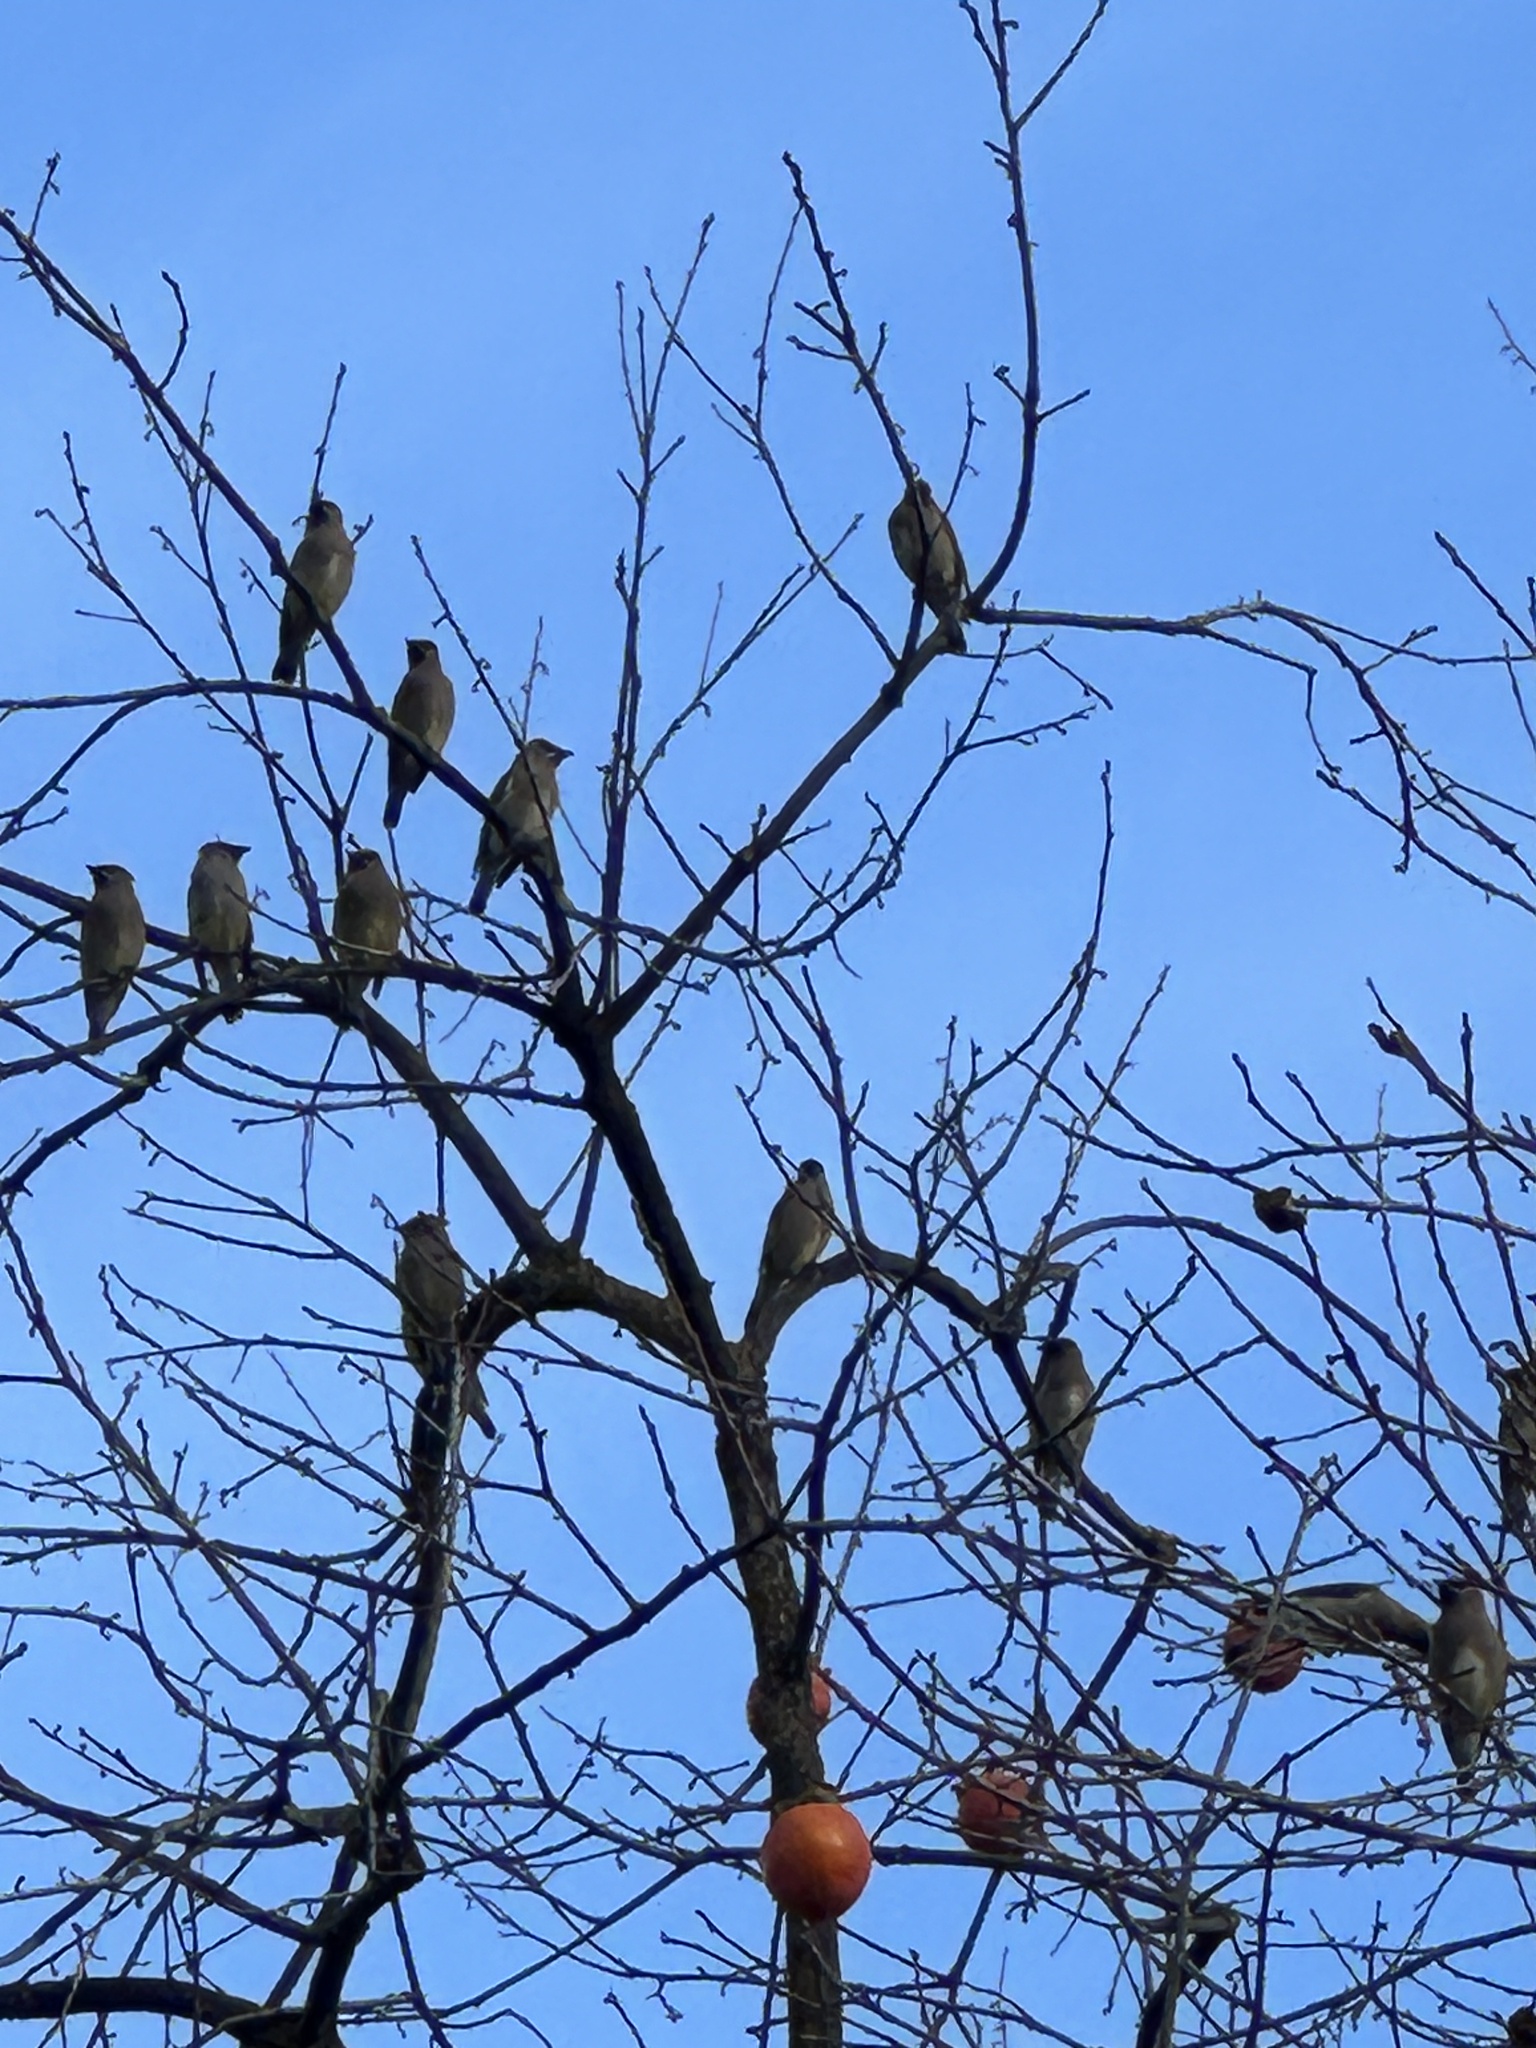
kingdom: Animalia
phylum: Chordata
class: Aves
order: Passeriformes
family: Bombycillidae
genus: Bombycilla
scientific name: Bombycilla cedrorum
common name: Cedar waxwing
